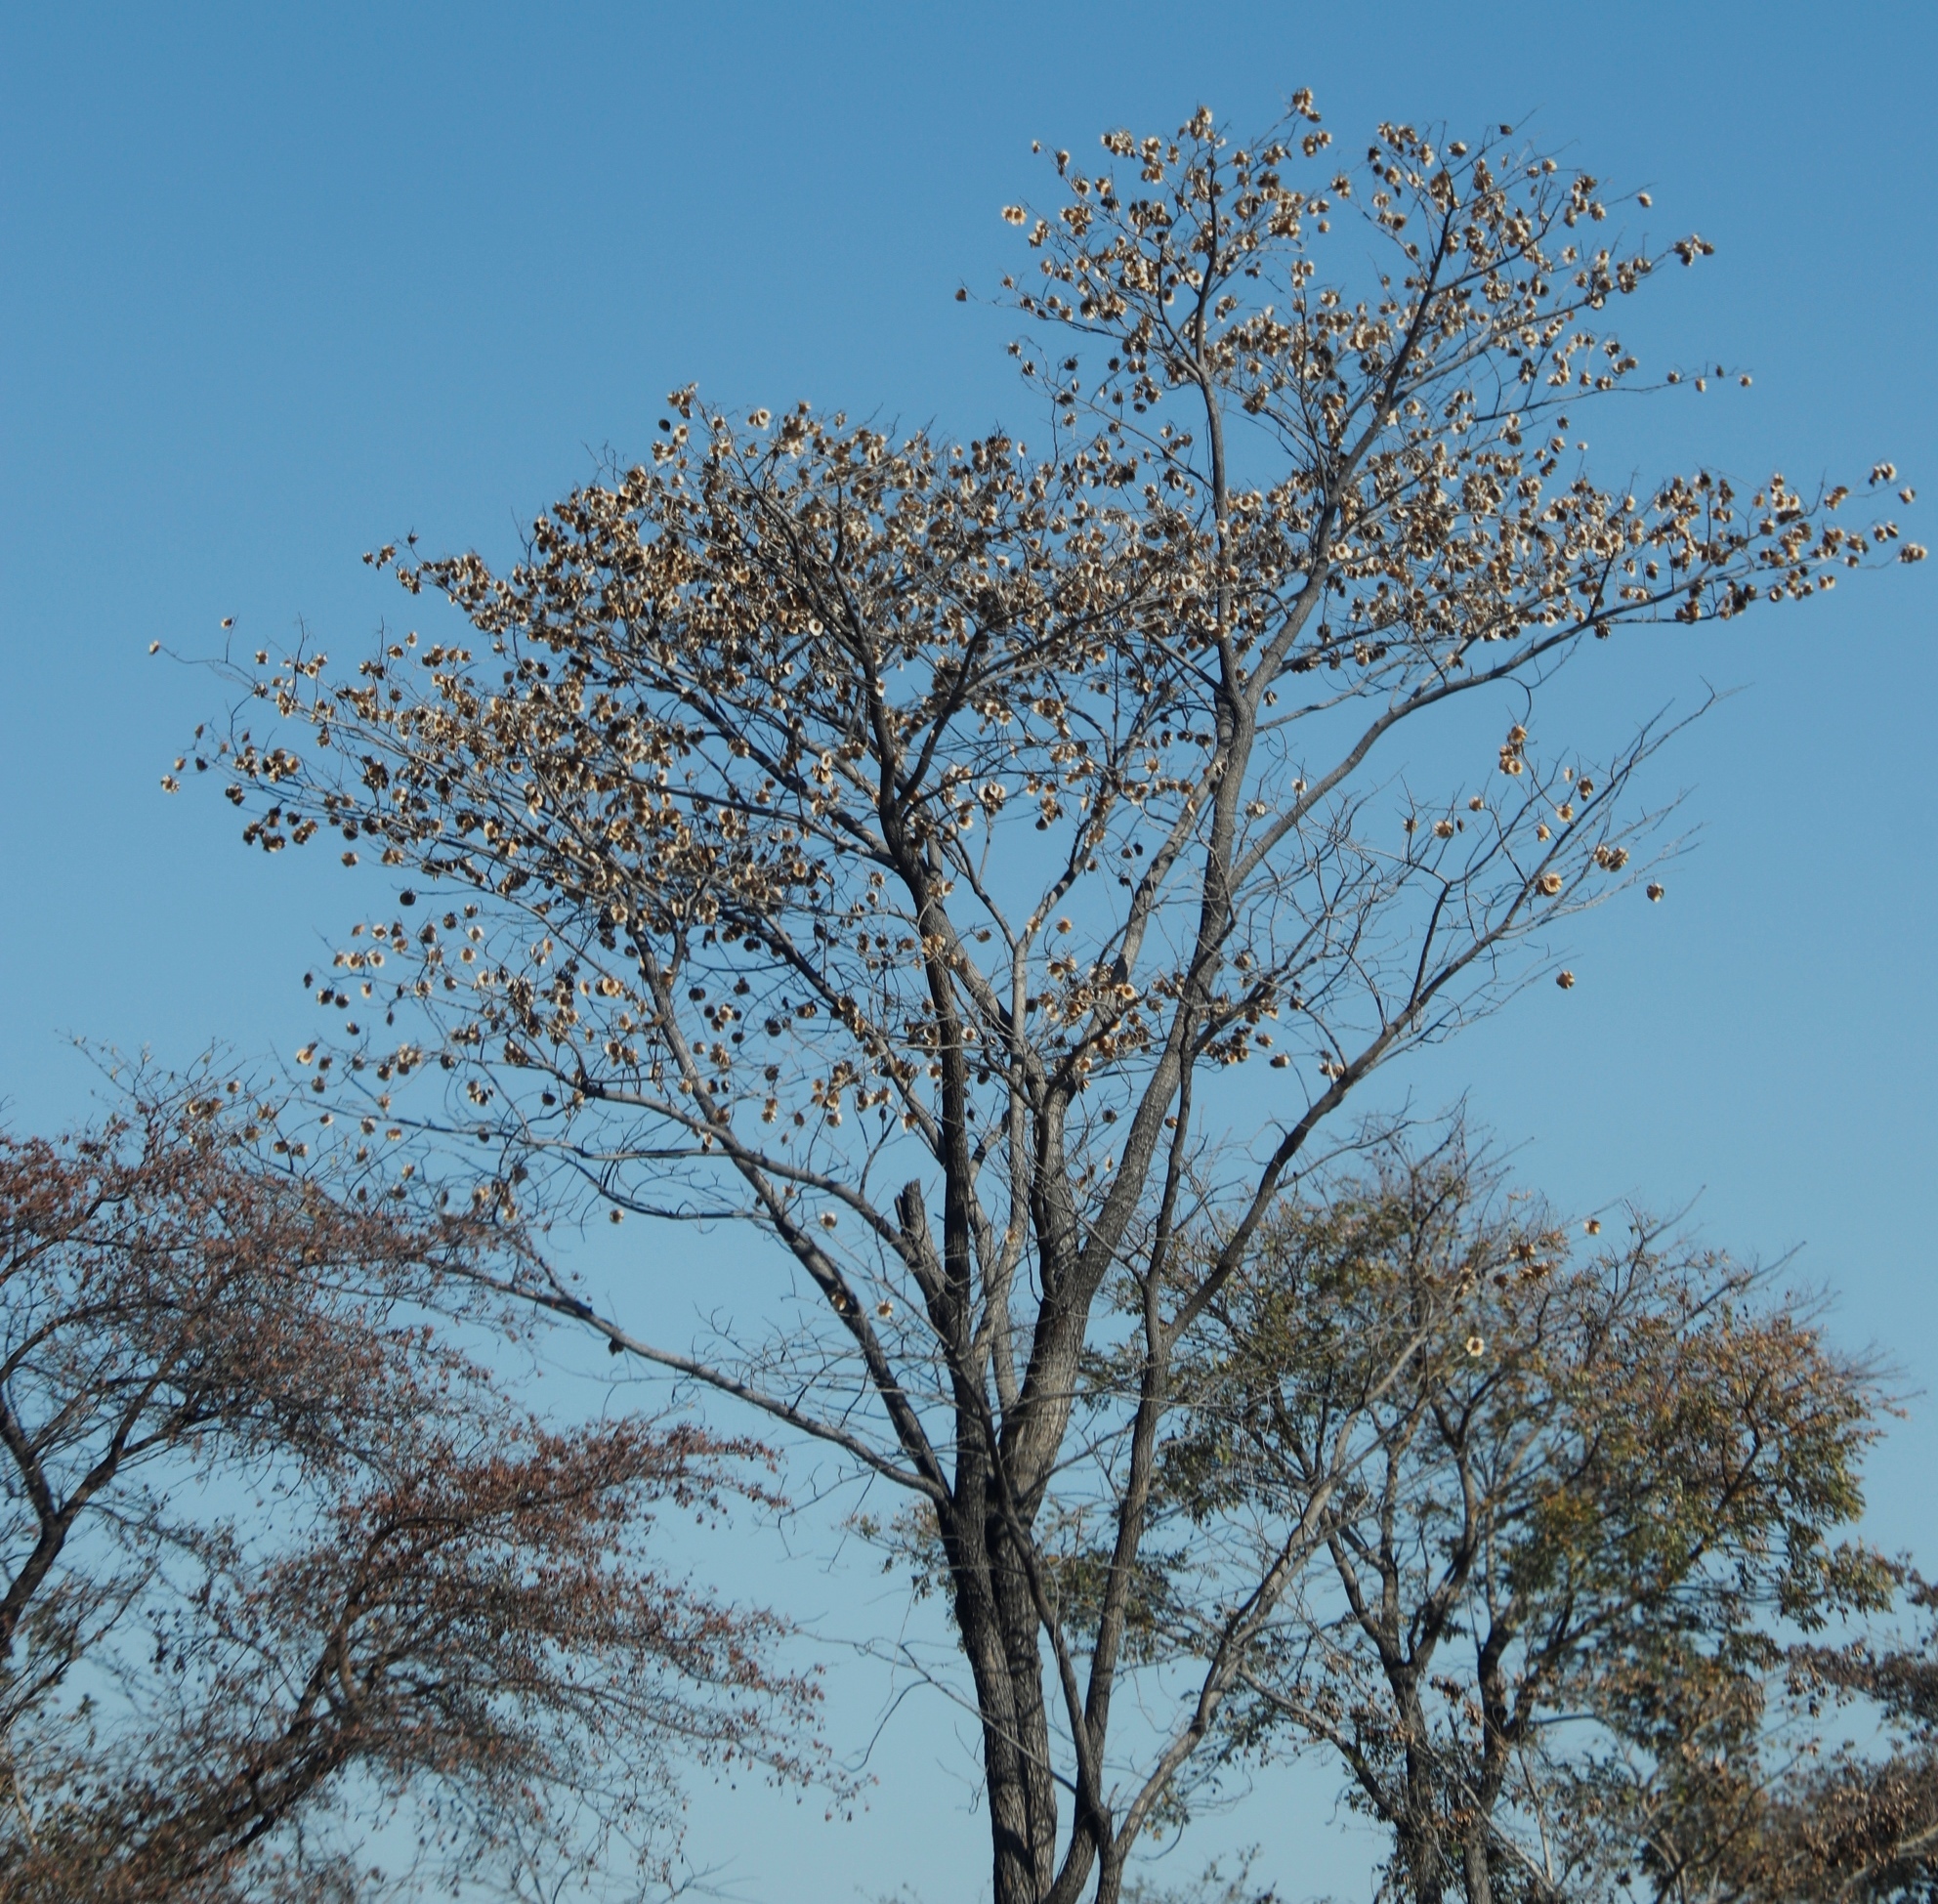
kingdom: Plantae
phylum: Tracheophyta
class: Magnoliopsida
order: Fabales
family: Fabaceae
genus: Pterocarpus
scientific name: Pterocarpus angolensis
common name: Bloodwood tree
